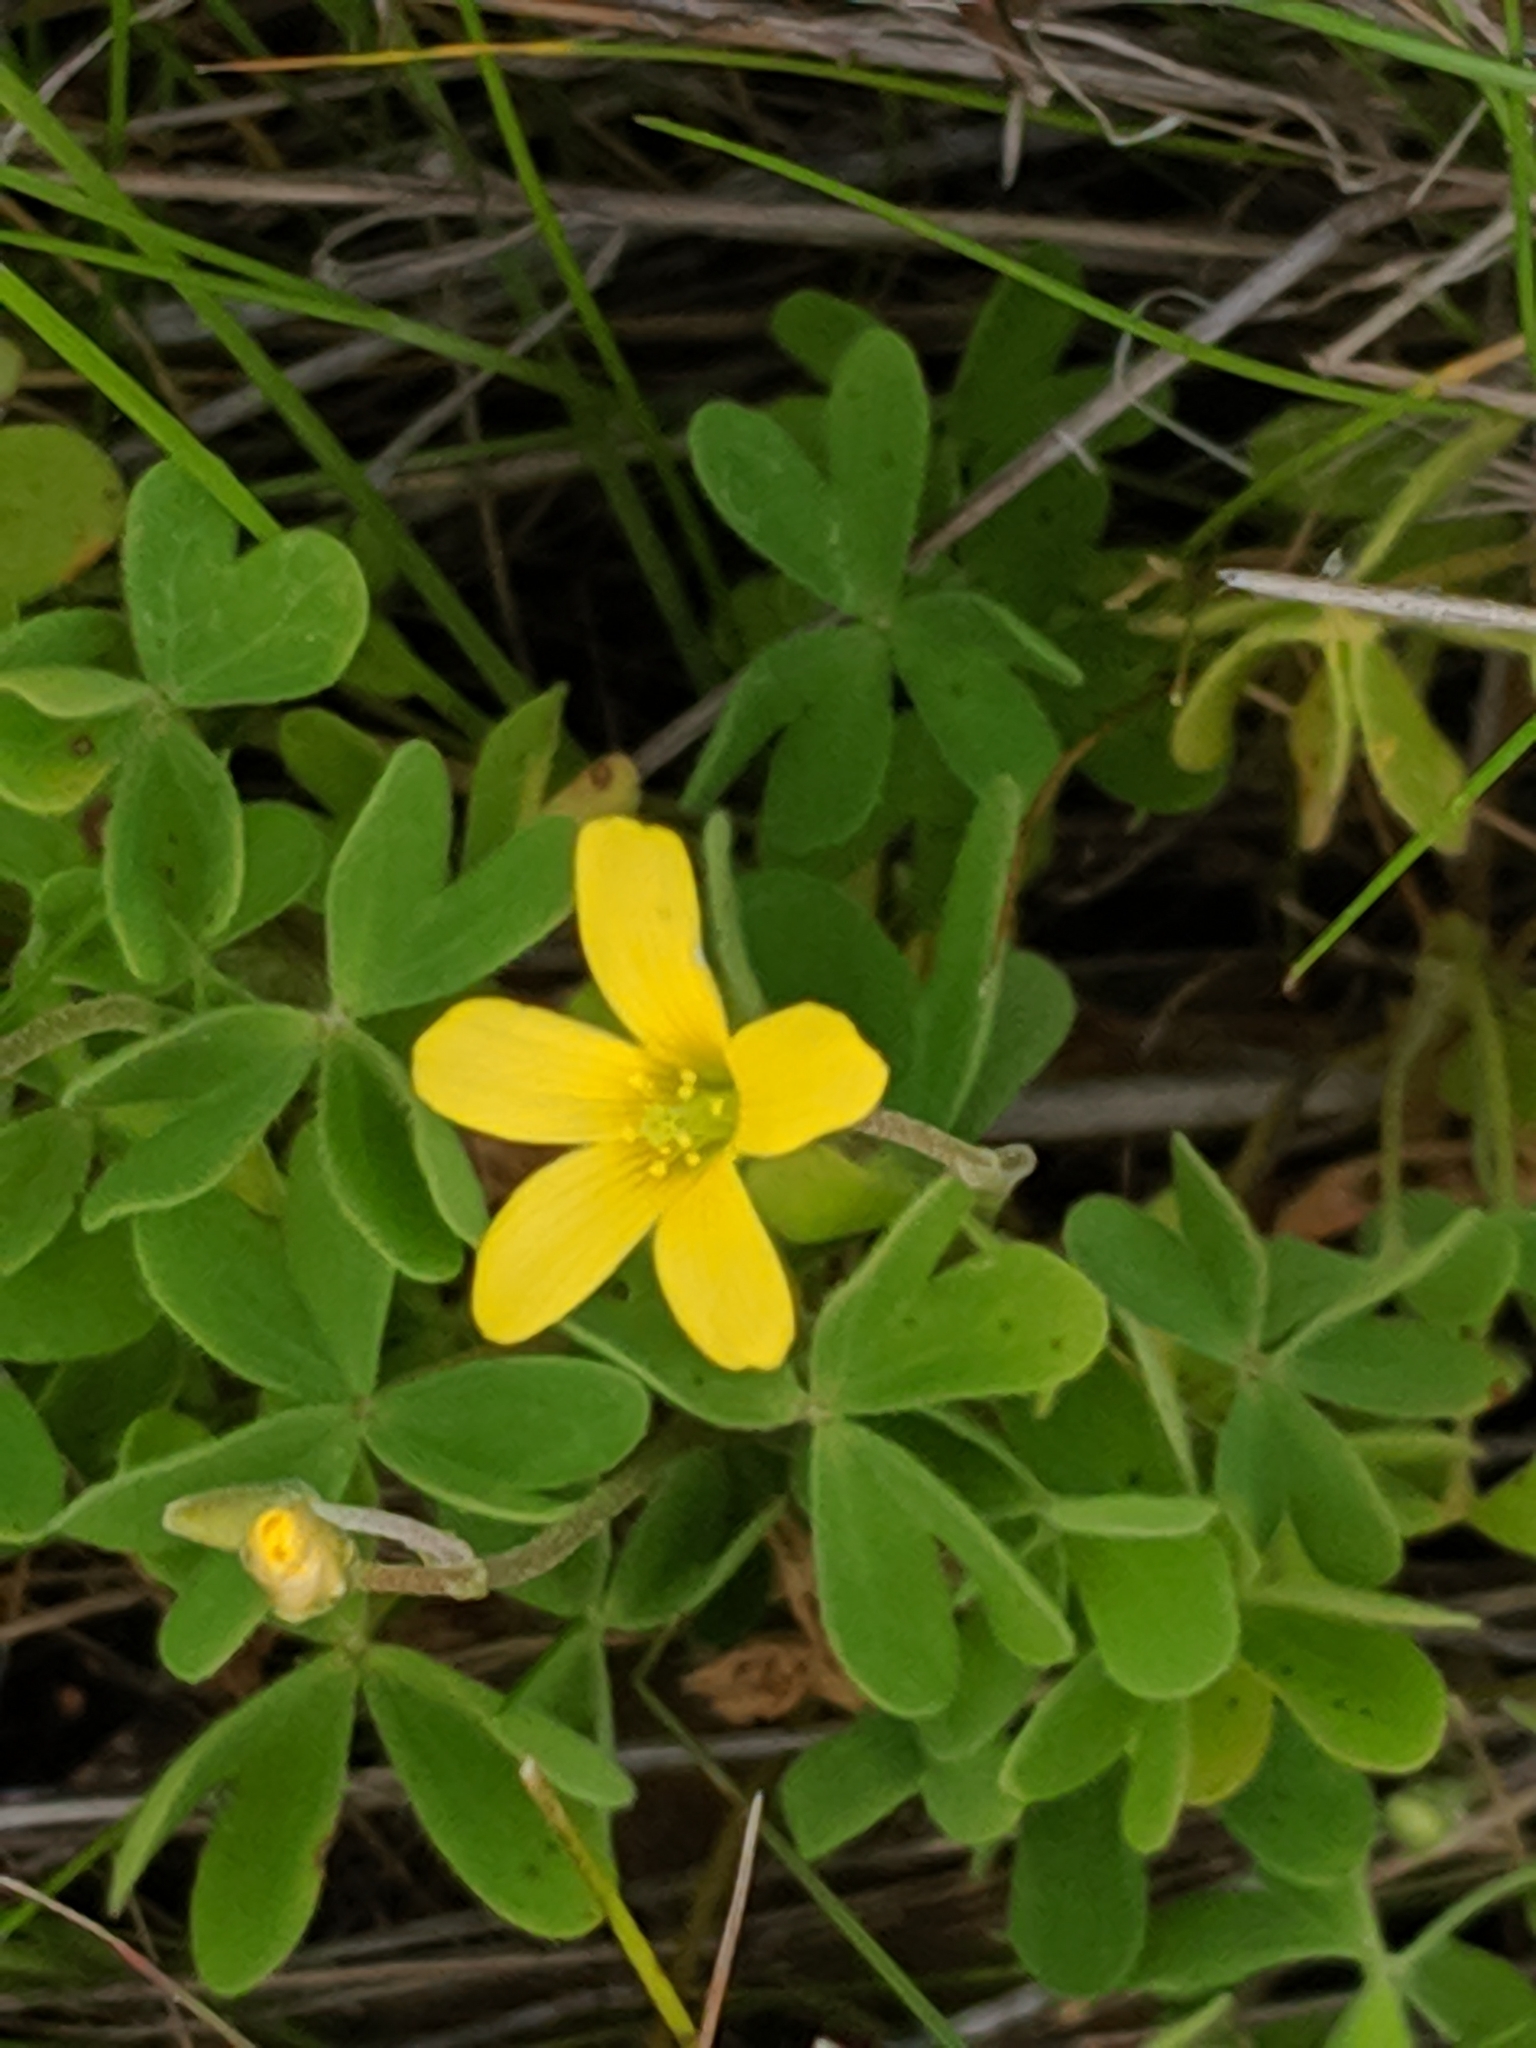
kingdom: Plantae
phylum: Tracheophyta
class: Magnoliopsida
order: Oxalidales
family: Oxalidaceae
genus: Oxalis
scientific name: Oxalis perennans
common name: Woody-rooted yellow-sorrel
